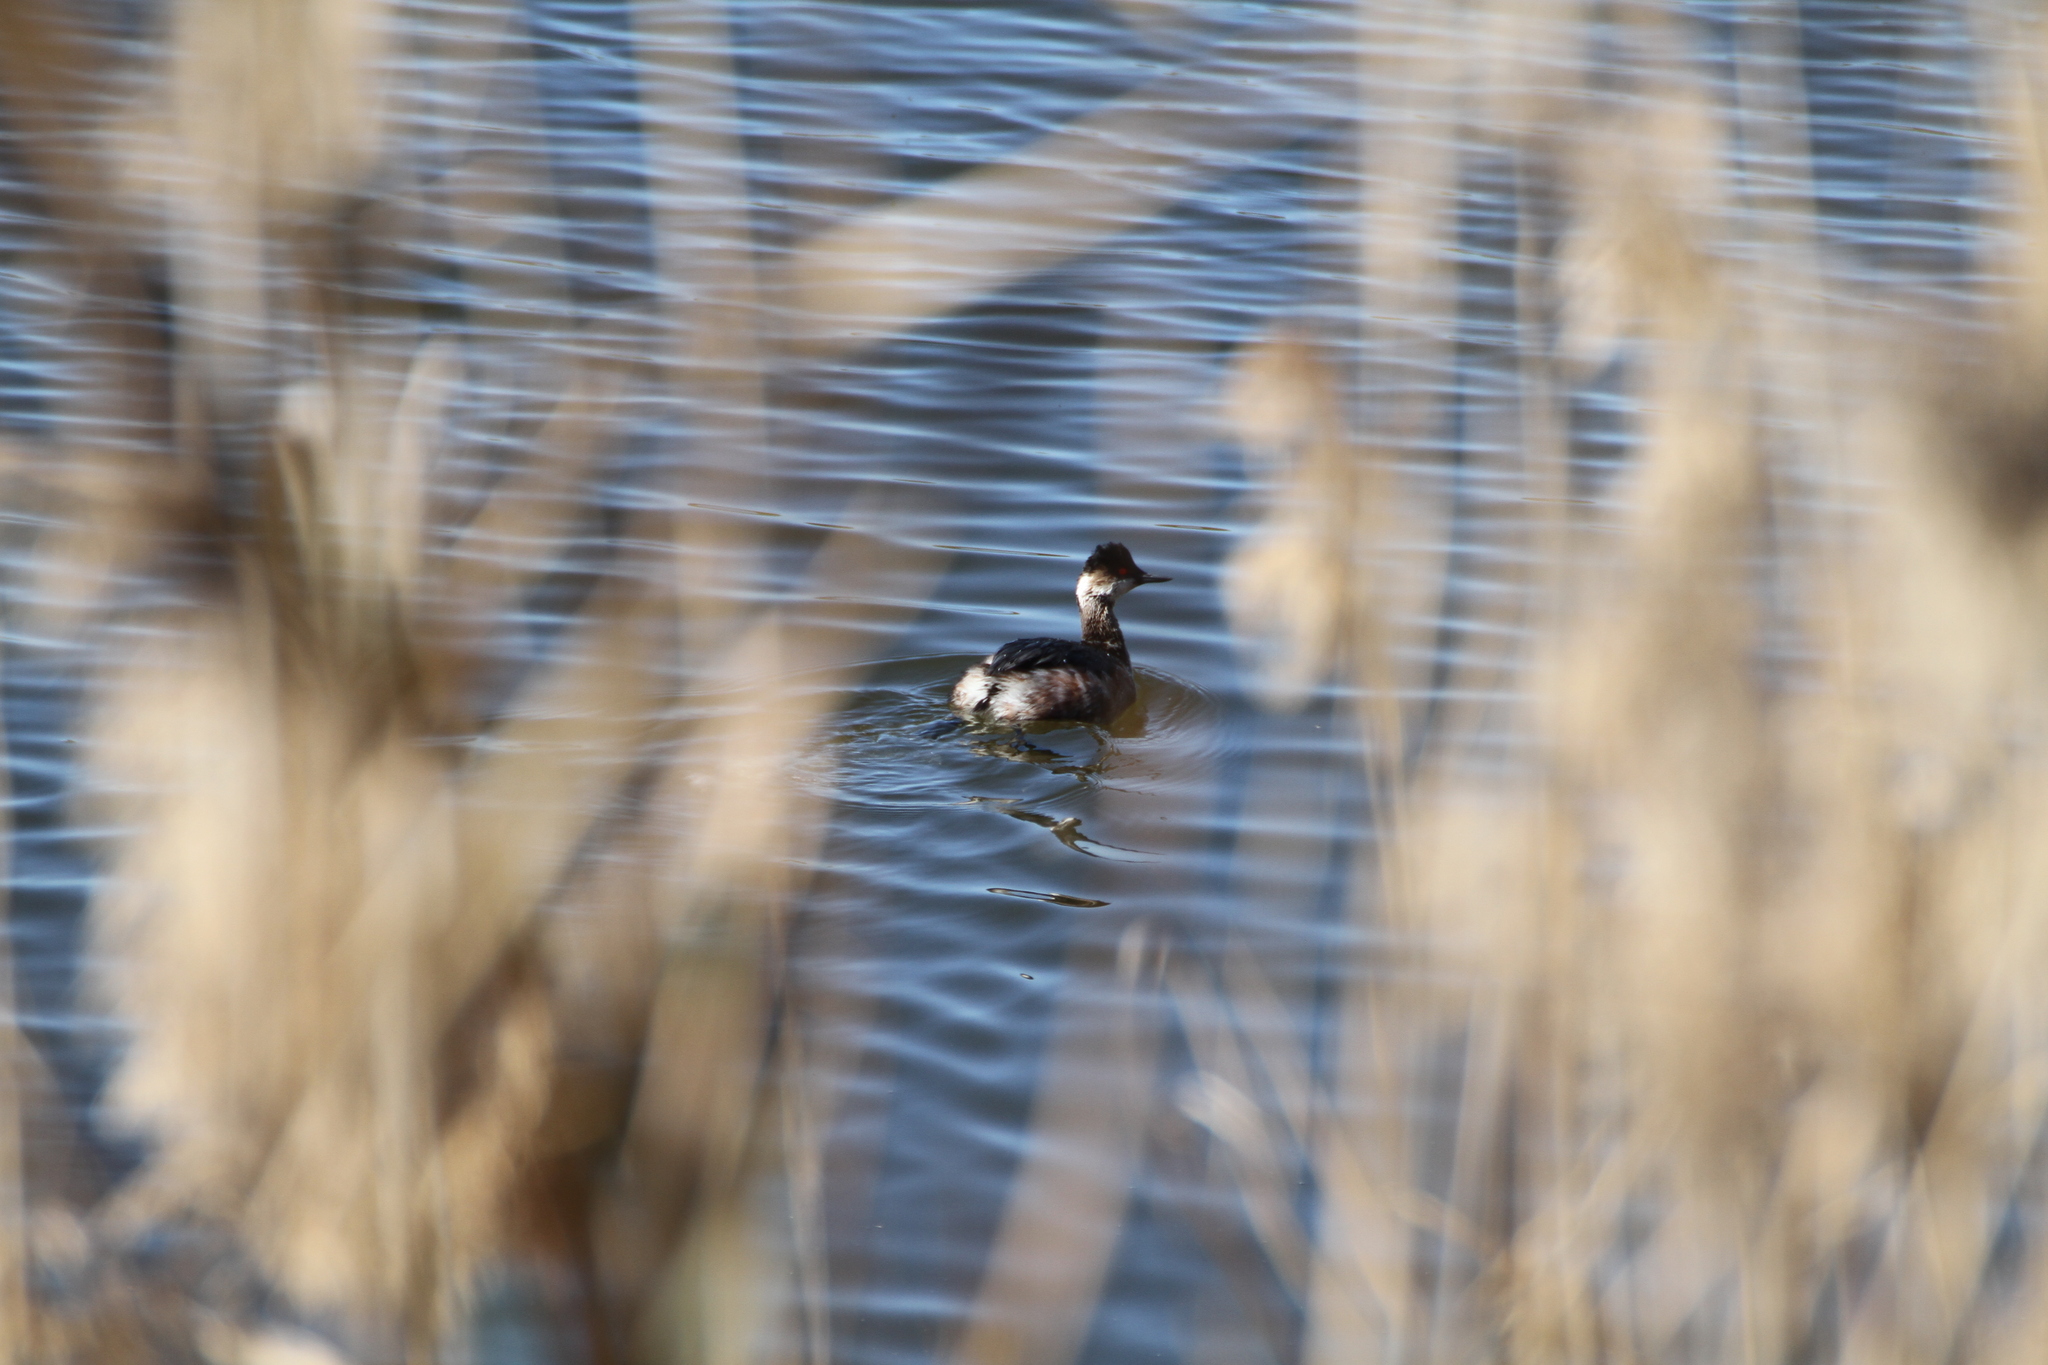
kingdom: Animalia
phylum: Chordata
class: Aves
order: Podicipediformes
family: Podicipedidae
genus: Podiceps
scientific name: Podiceps nigricollis
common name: Black-necked grebe
